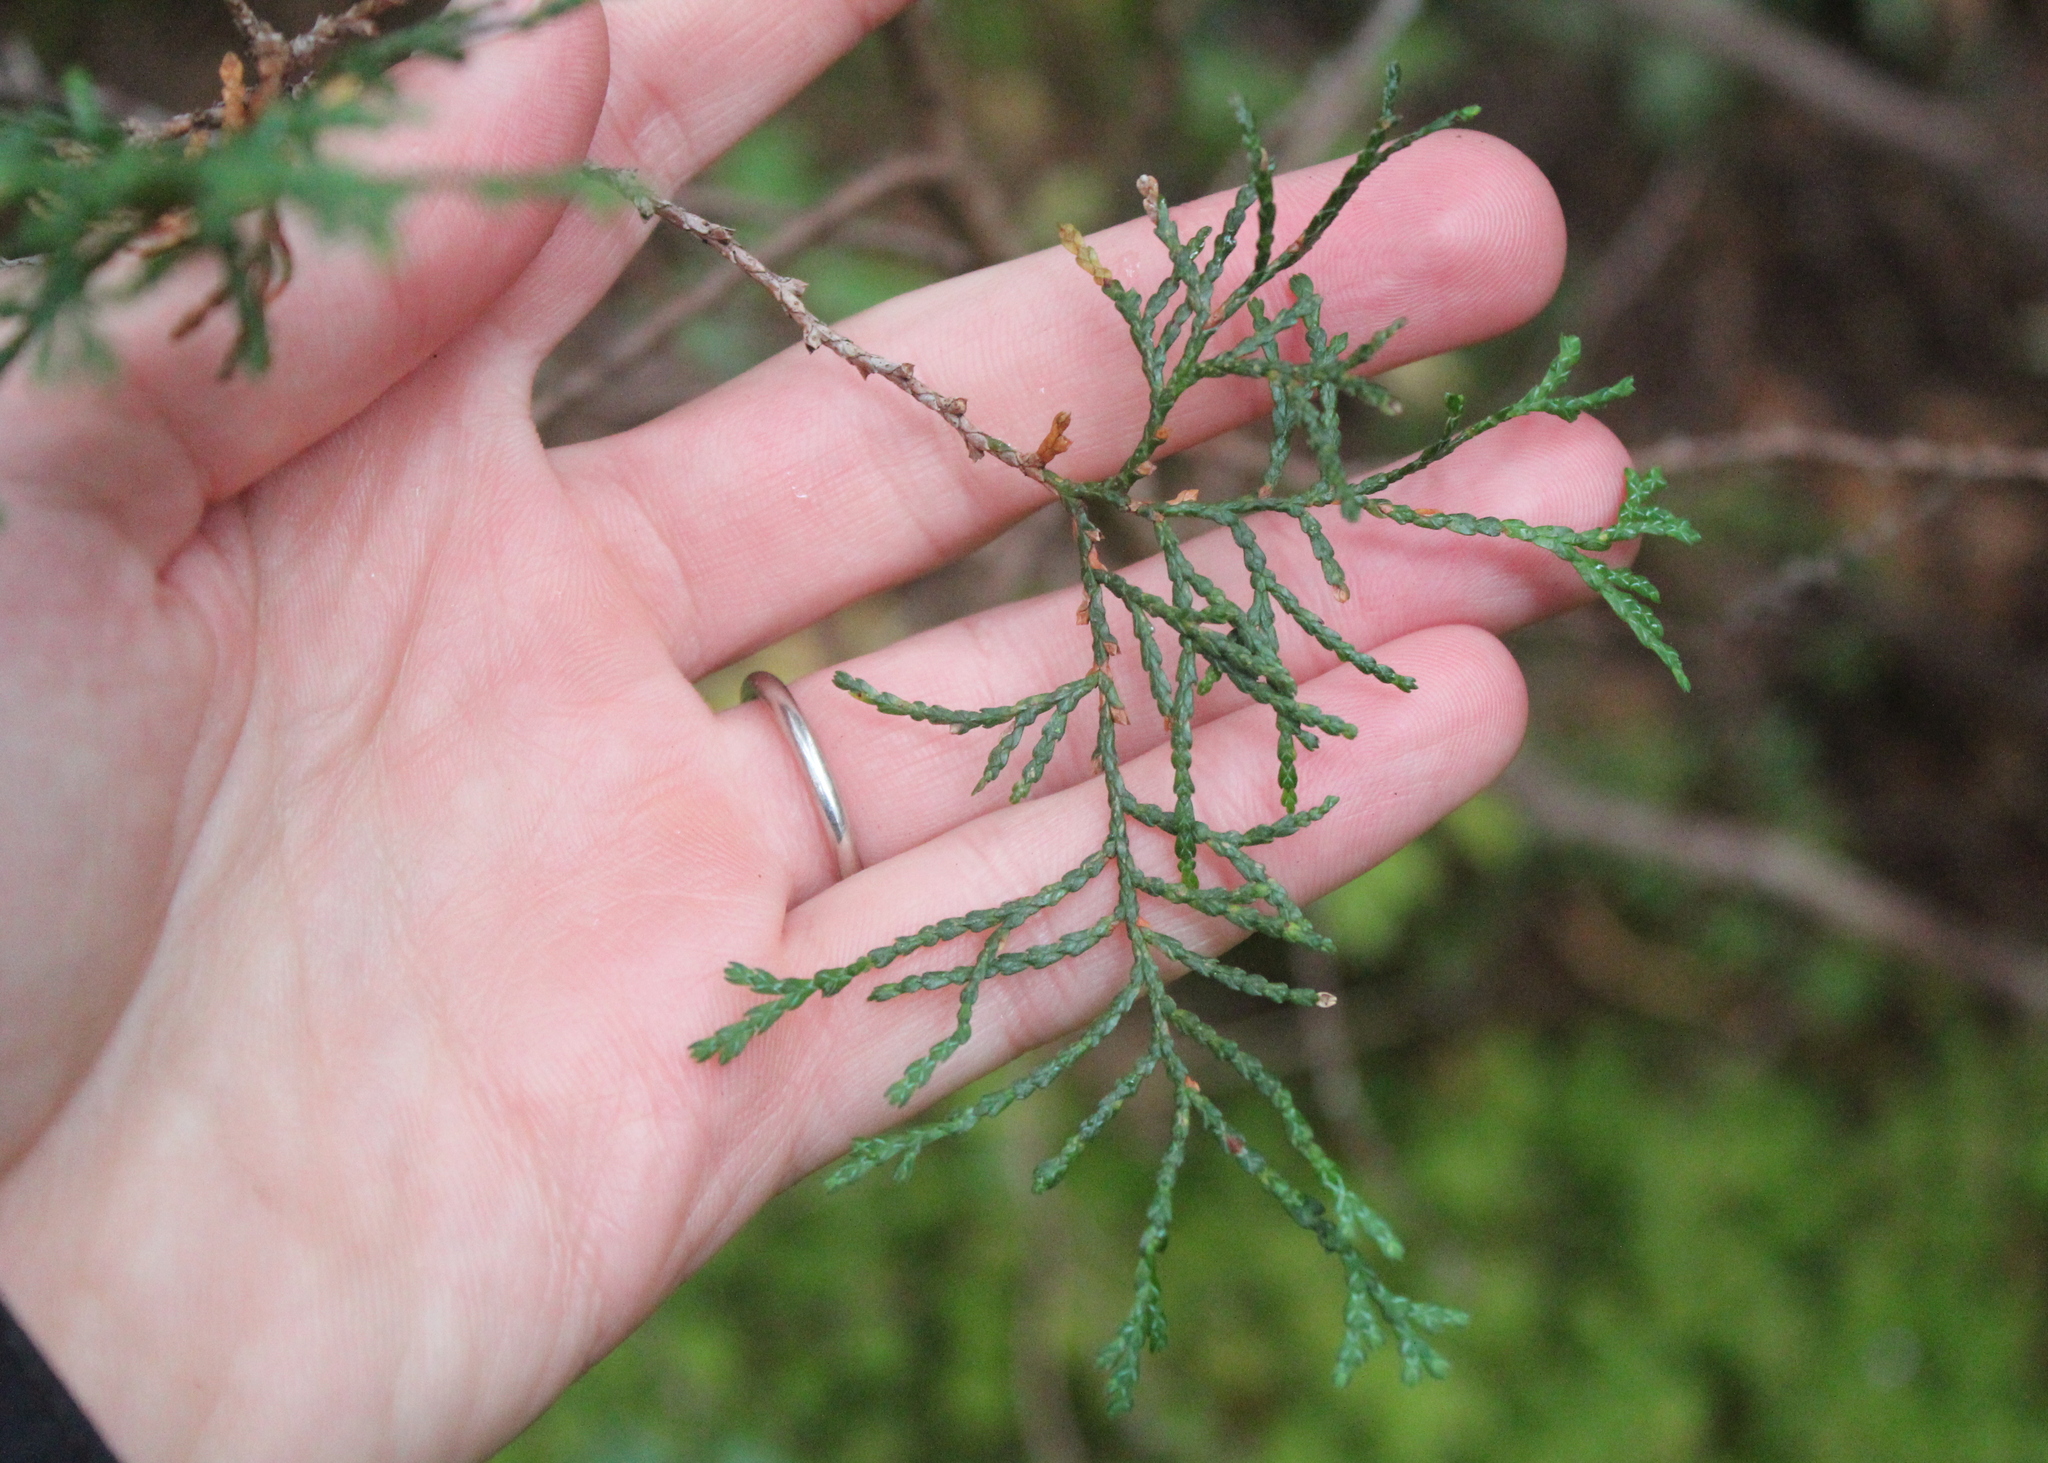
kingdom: Plantae
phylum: Tracheophyta
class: Pinopsida
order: Pinales
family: Cupressaceae
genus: Chamaecyparis
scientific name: Chamaecyparis thyoides
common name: Atlantic white cedar
